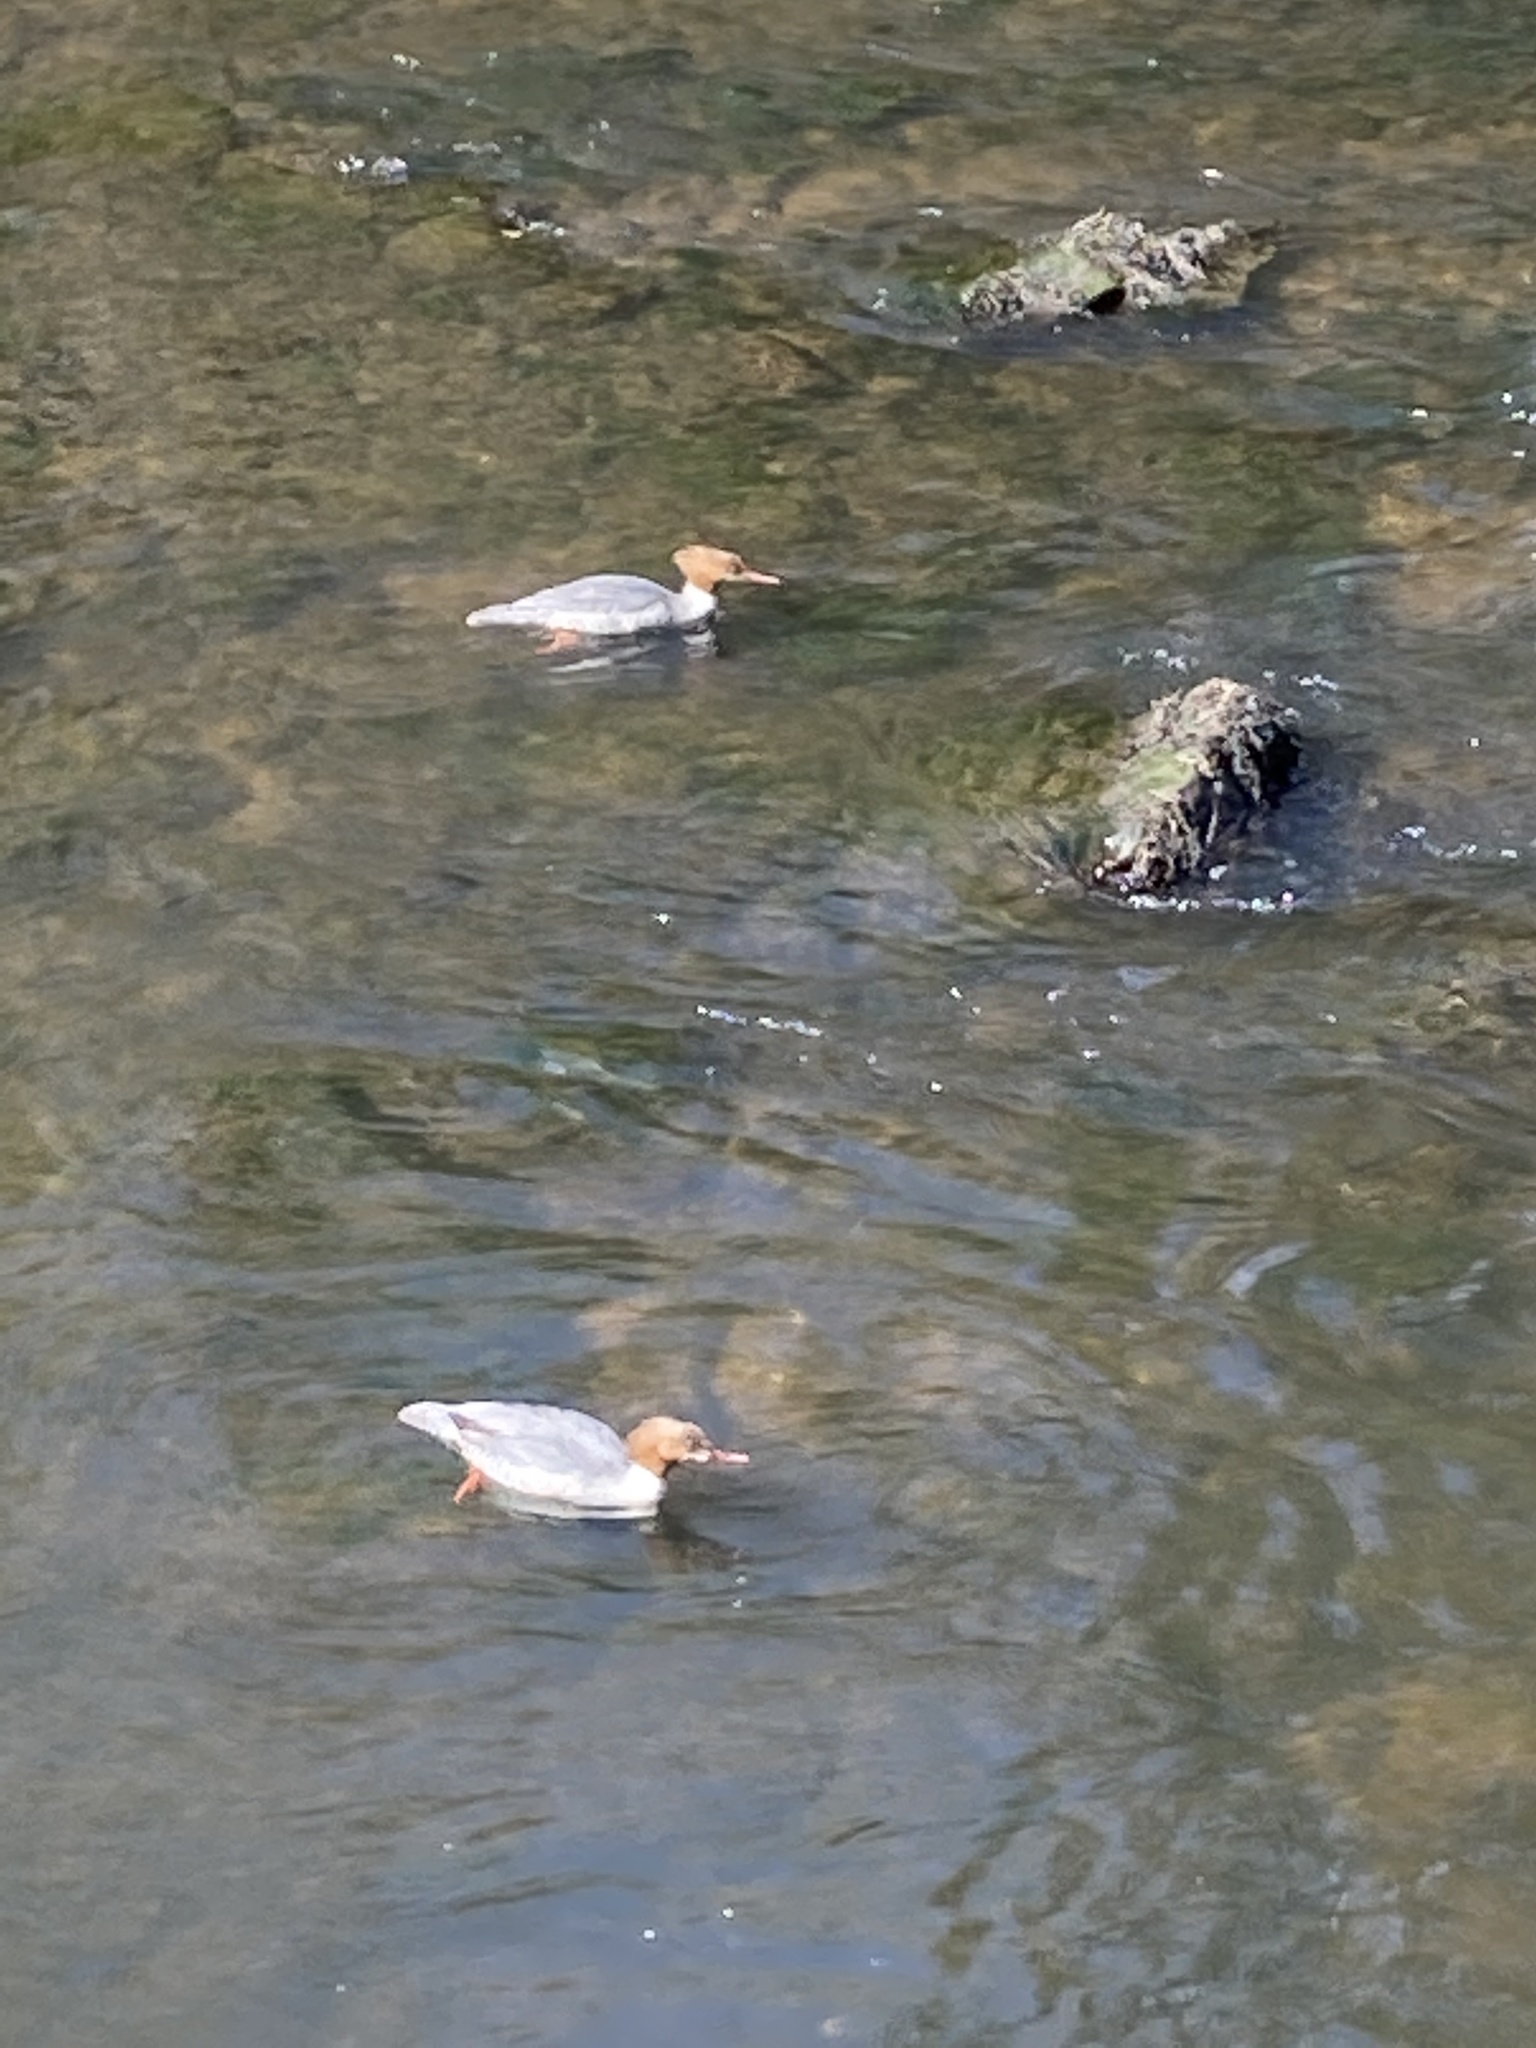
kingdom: Animalia
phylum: Chordata
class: Aves
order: Anseriformes
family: Anatidae
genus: Mergus
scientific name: Mergus merganser
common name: Common merganser
